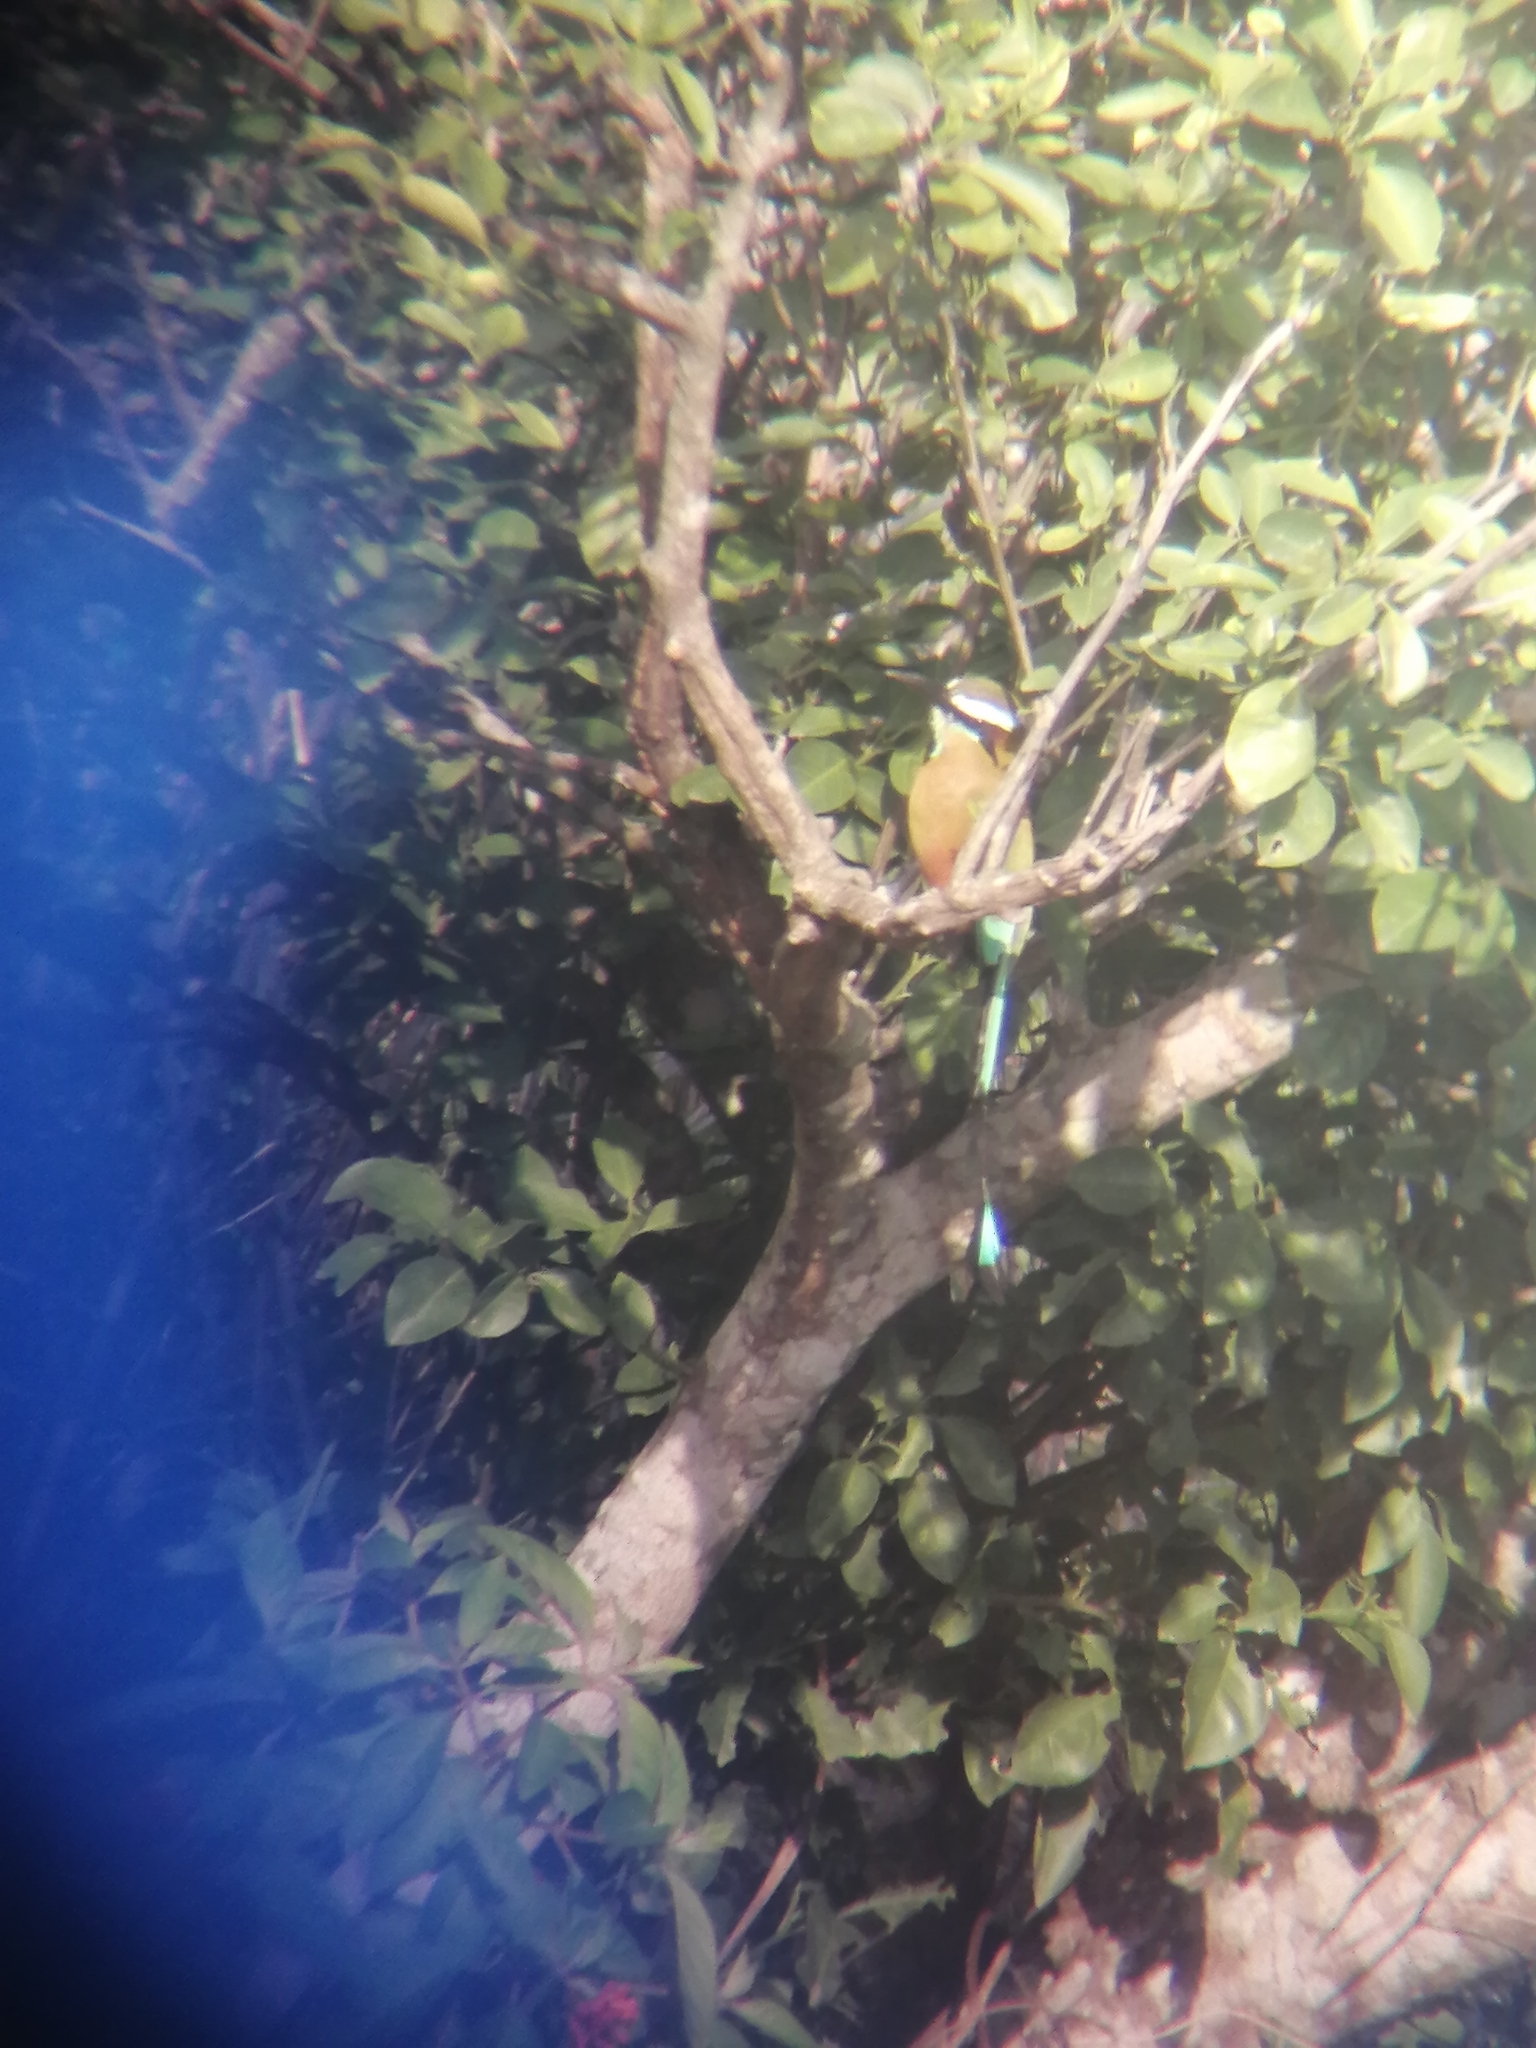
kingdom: Animalia
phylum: Chordata
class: Aves
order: Coraciiformes
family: Momotidae
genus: Eumomota
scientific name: Eumomota superciliosa
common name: Turquoise-browed motmot
